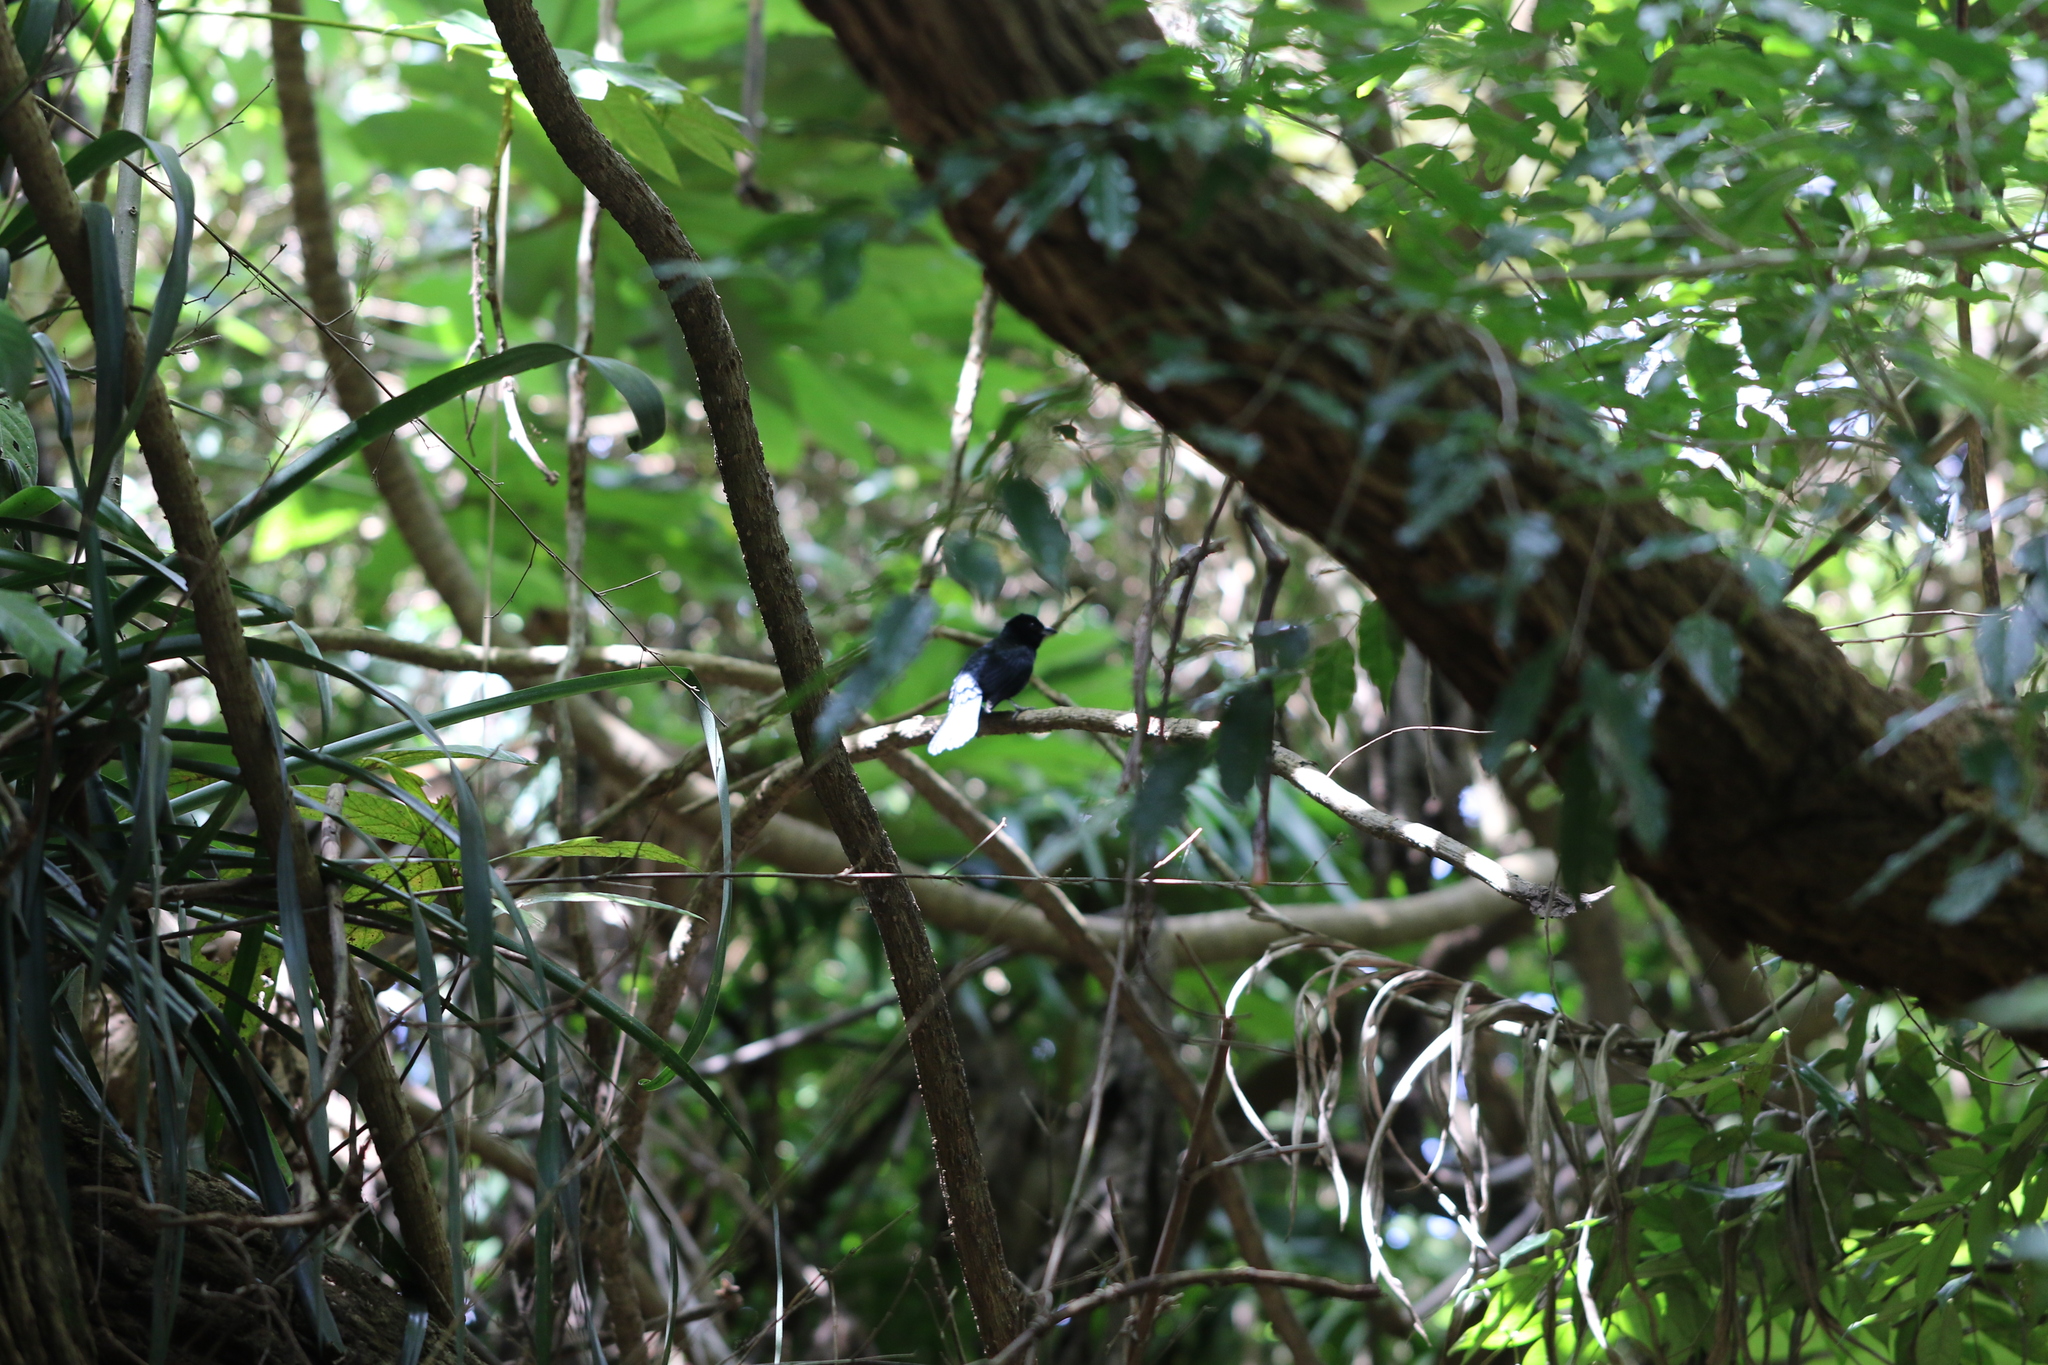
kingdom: Animalia
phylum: Chordata
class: Aves
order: Passeriformes
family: Thraupidae
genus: Tachyphonus
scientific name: Tachyphonus coronatus
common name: Ruby-crowned tanager
